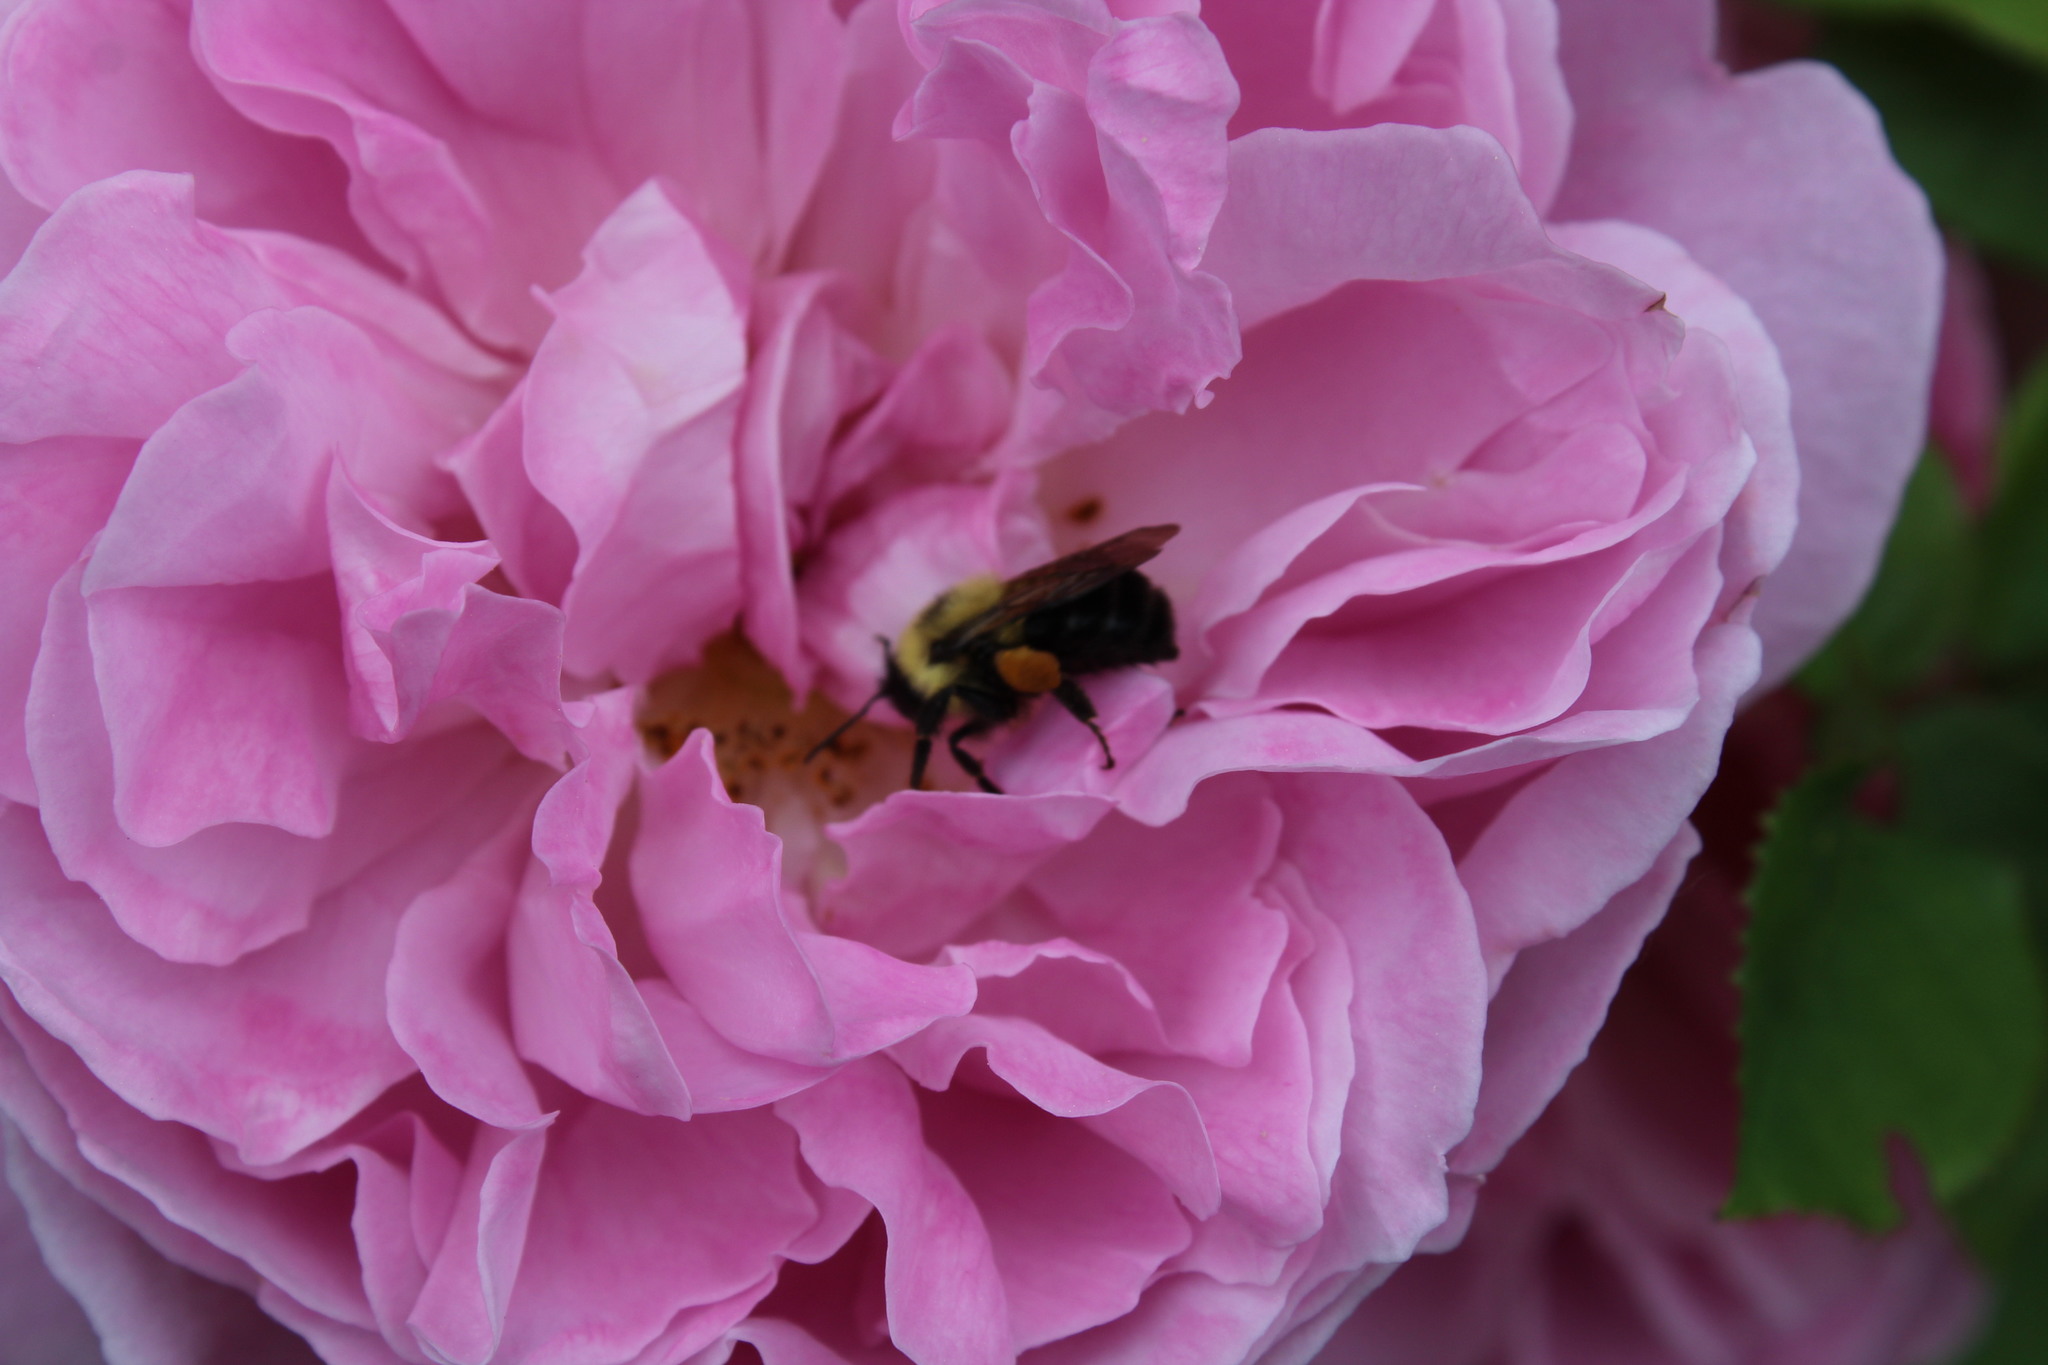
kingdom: Animalia
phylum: Arthropoda
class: Insecta
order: Hymenoptera
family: Apidae
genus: Bombus
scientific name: Bombus bimaculatus
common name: Two-spotted bumble bee
